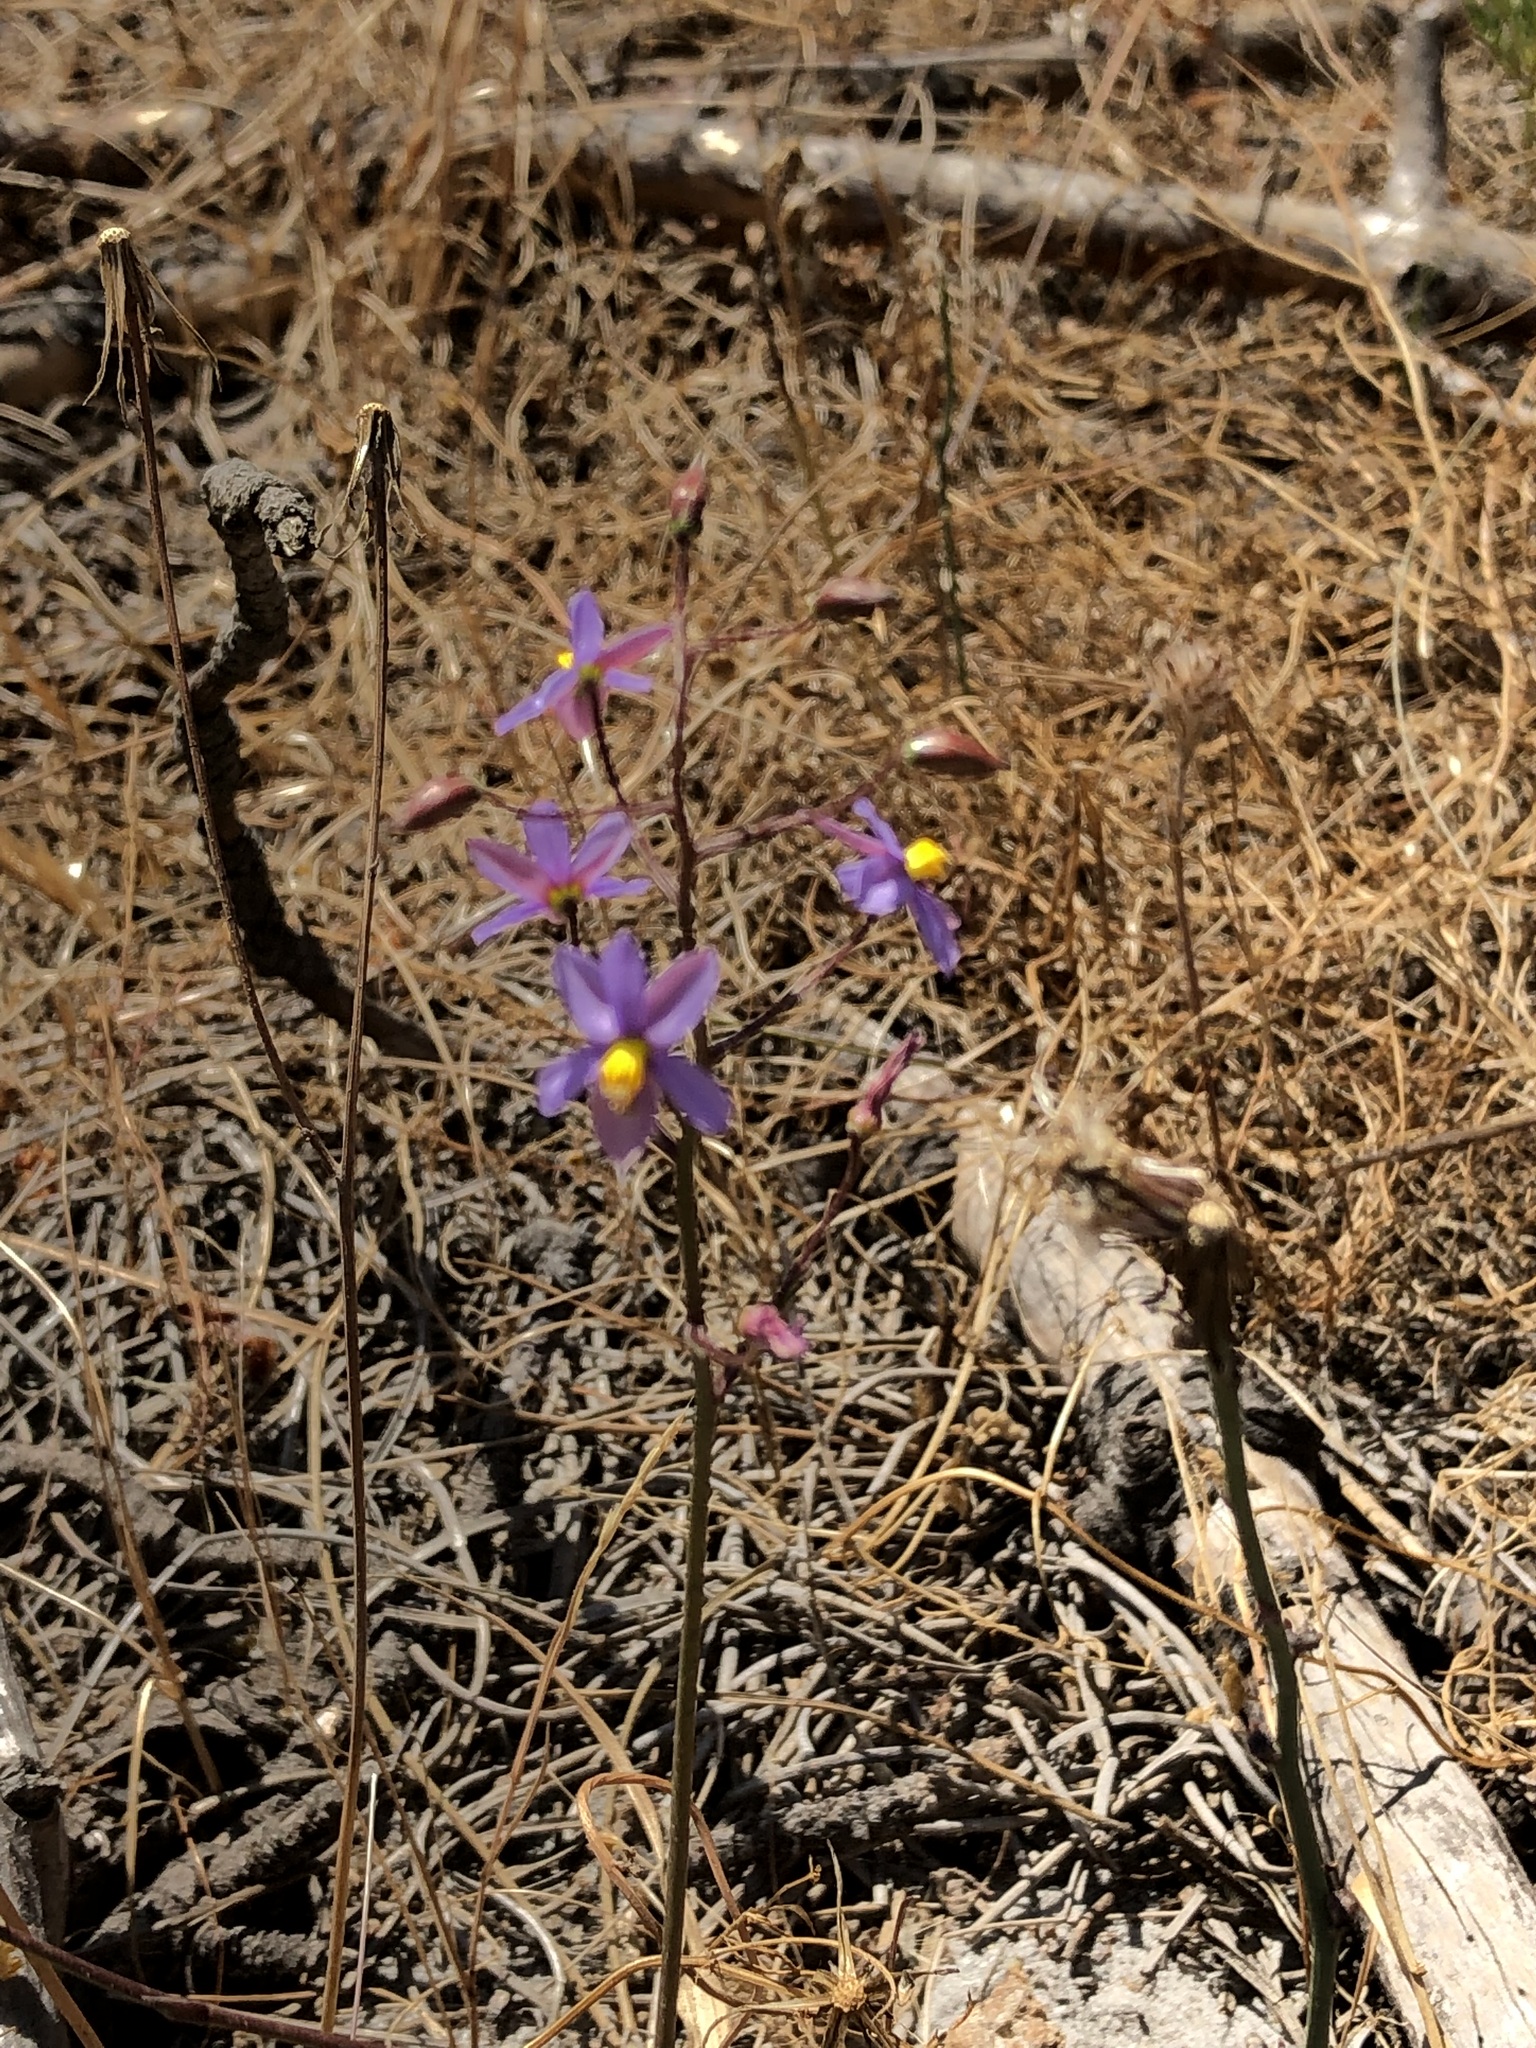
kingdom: Plantae
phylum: Tracheophyta
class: Liliopsida
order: Asparagales
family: Tecophilaeaceae
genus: Cyanella
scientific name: Cyanella hyacinthoides
